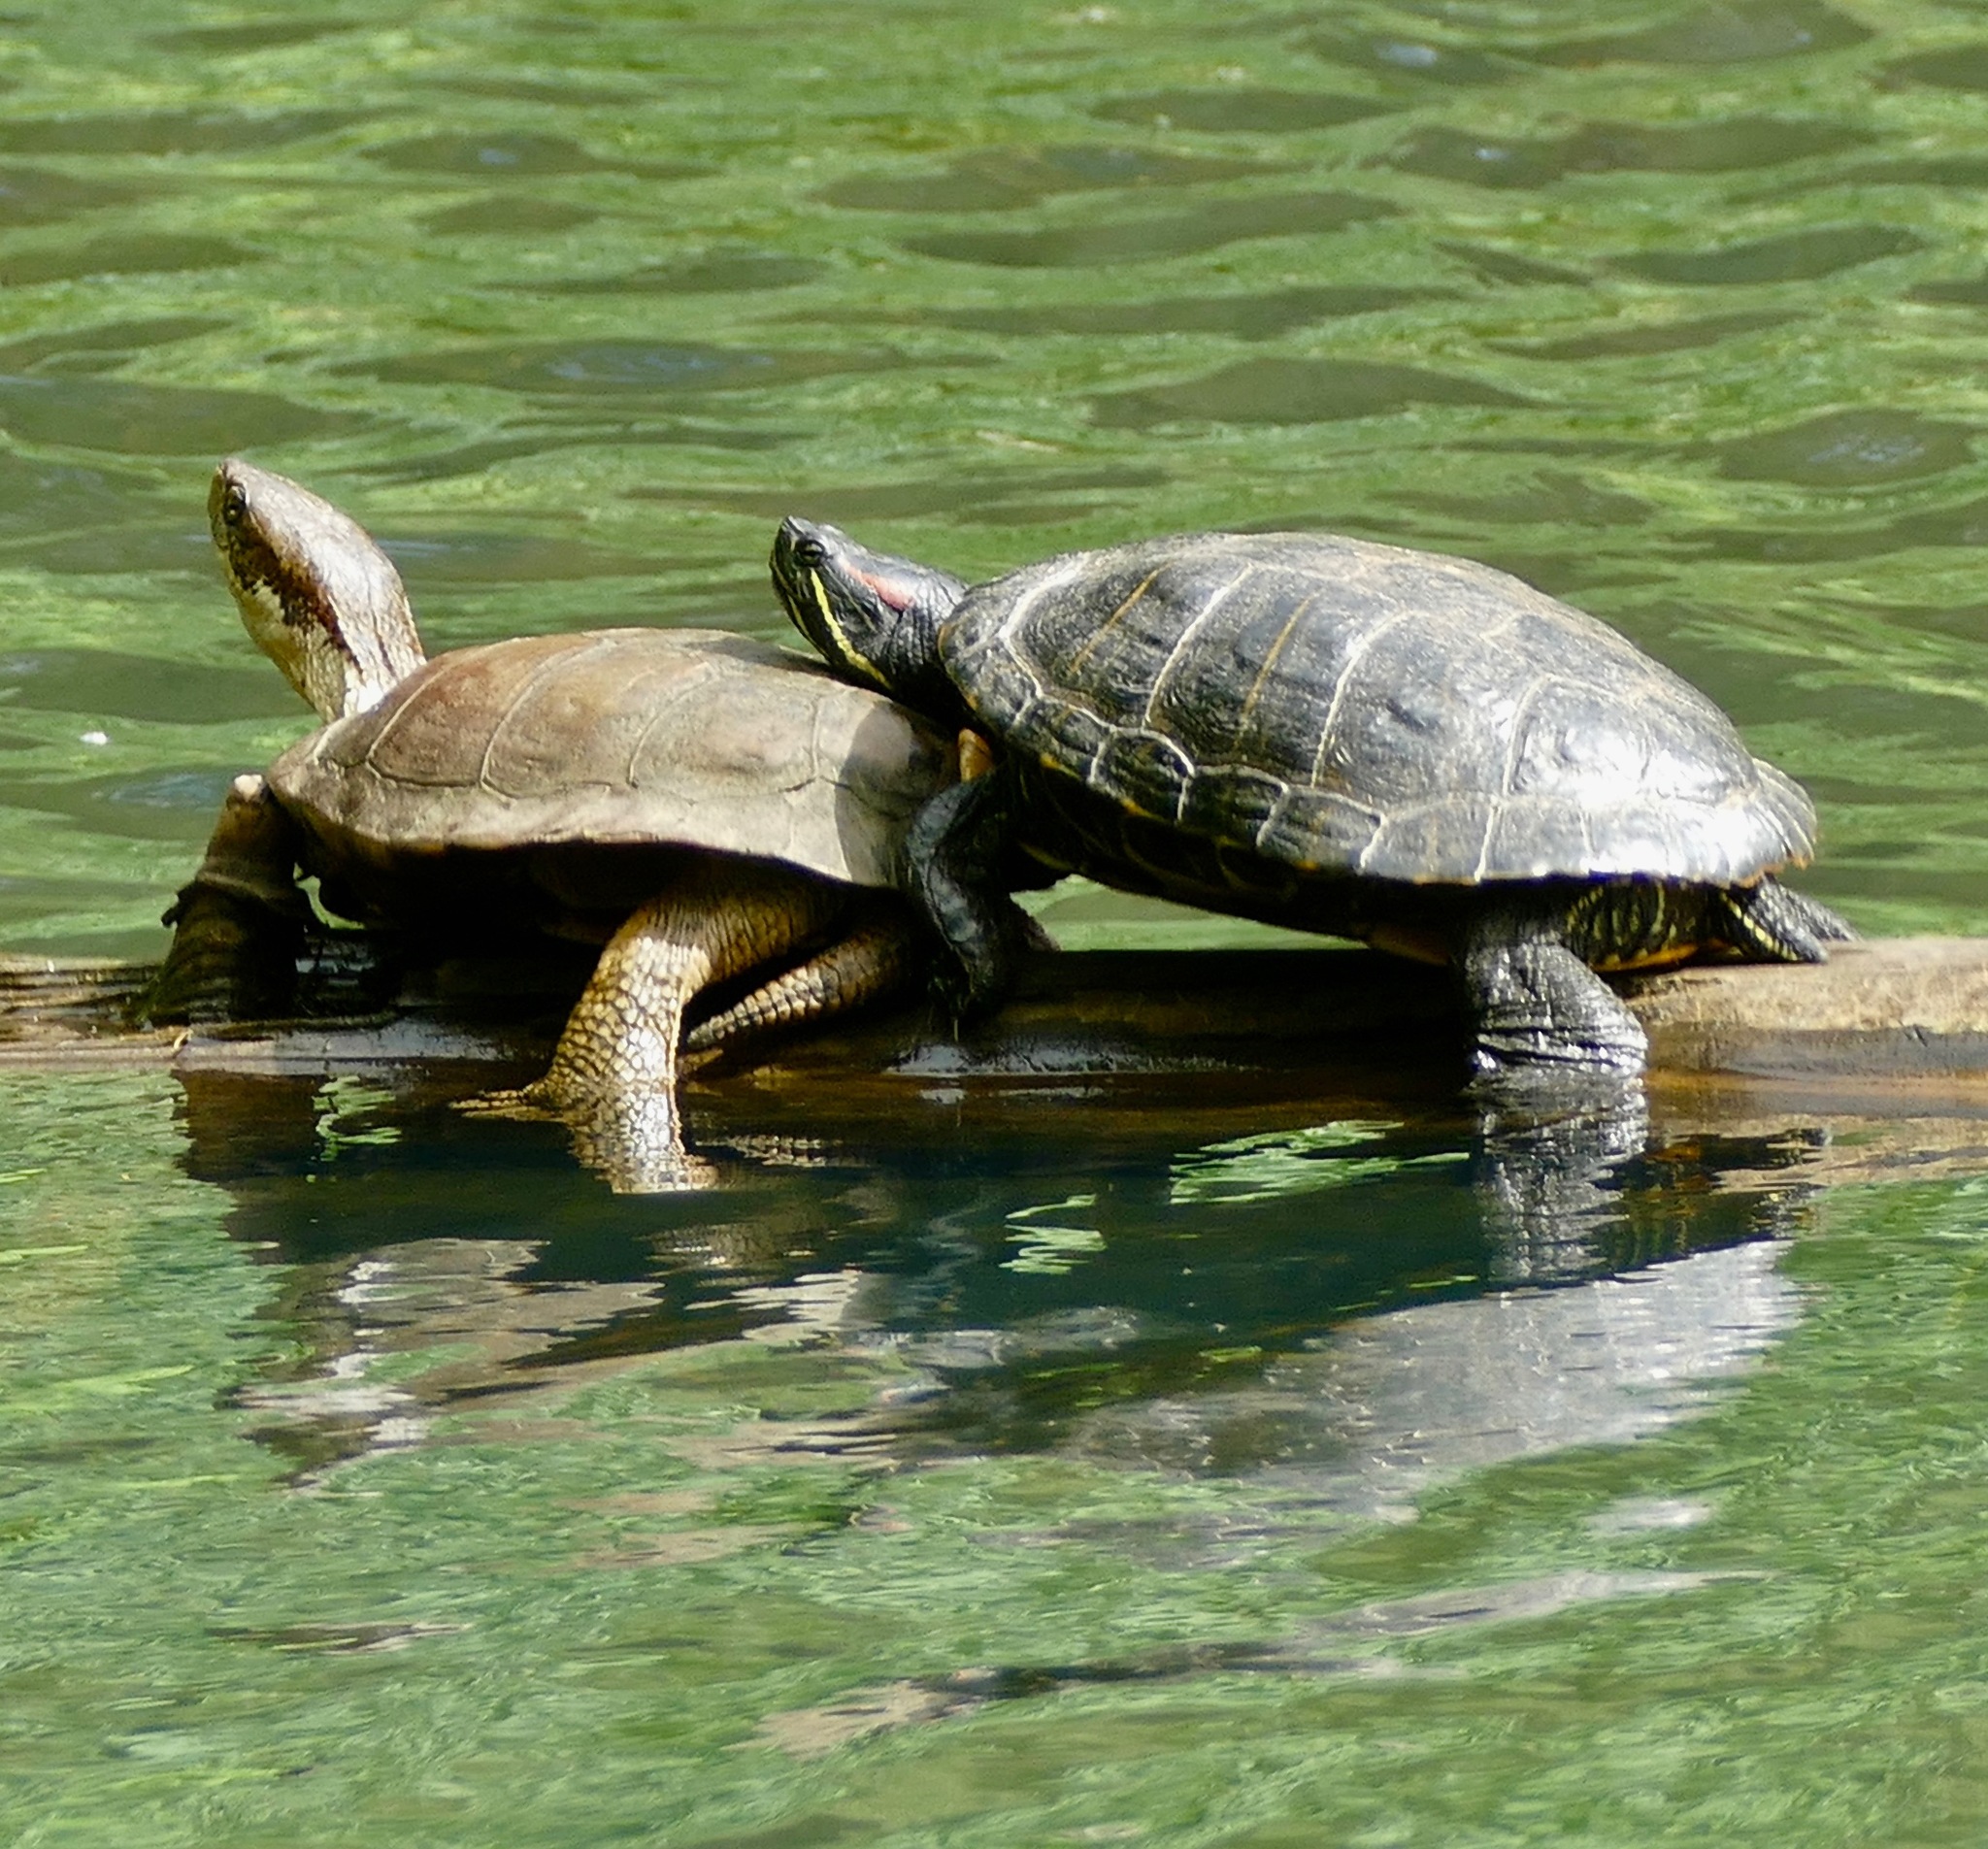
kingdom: Animalia
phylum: Chordata
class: Testudines
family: Emydidae
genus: Trachemys
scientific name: Trachemys scripta
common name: Slider
